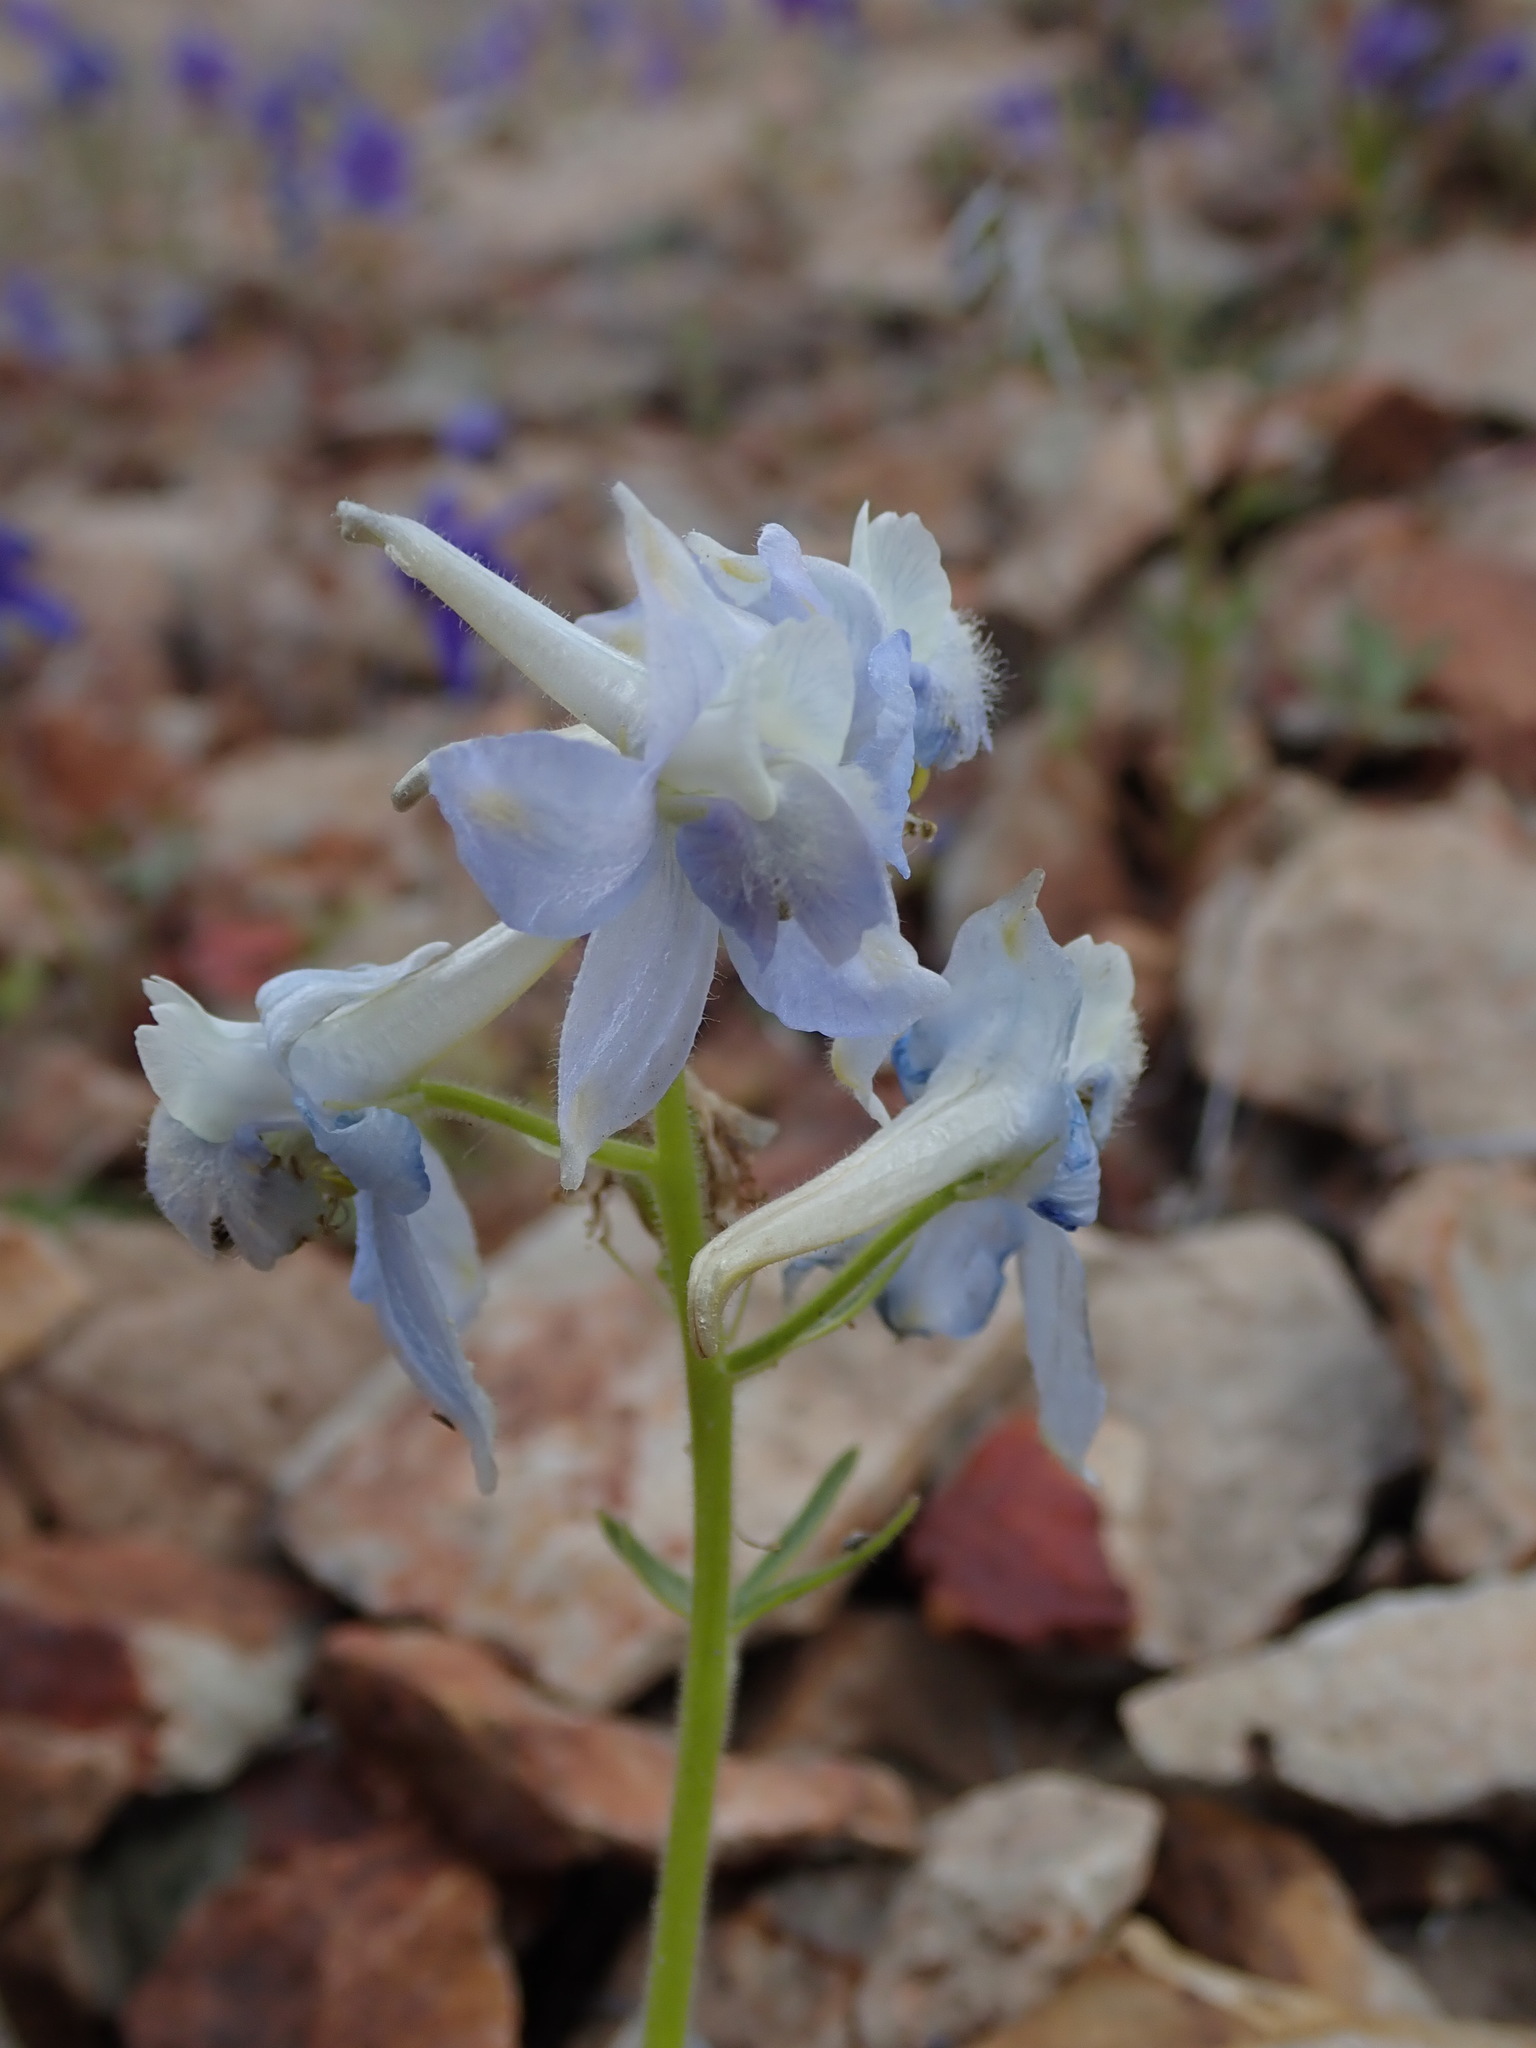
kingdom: Plantae
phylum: Tracheophyta
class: Magnoliopsida
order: Ranunculales
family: Ranunculaceae
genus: Delphinium
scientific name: Delphinium nuttallianum
